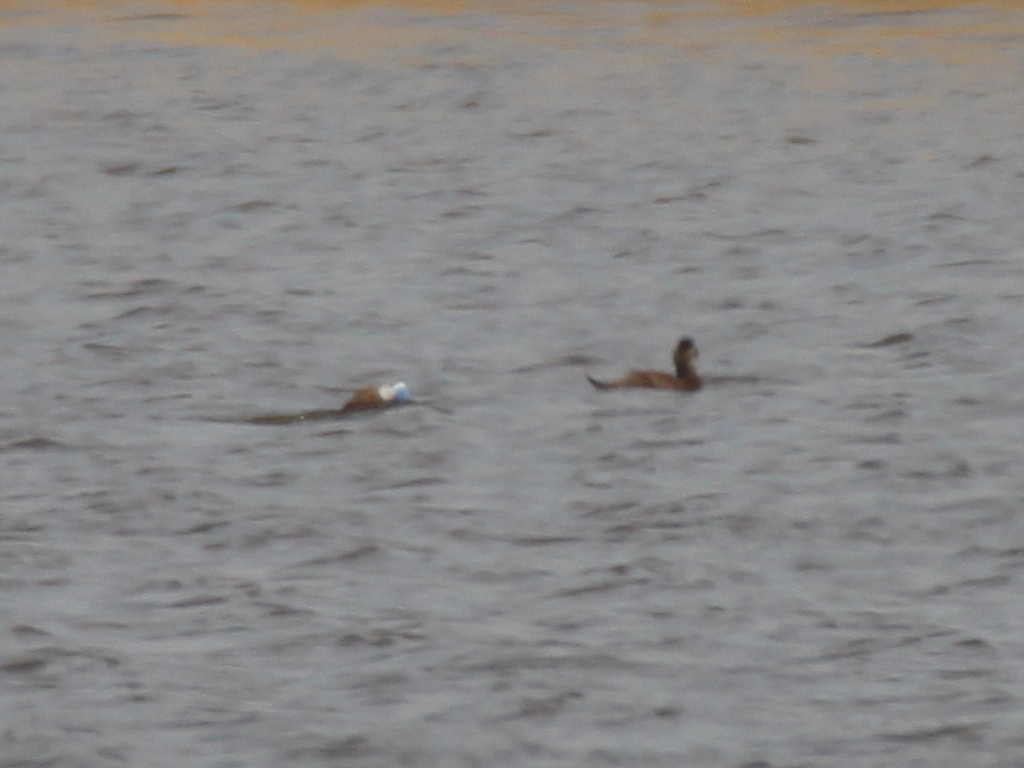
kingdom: Animalia
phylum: Chordata
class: Aves
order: Anseriformes
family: Anatidae
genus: Oxyura
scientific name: Oxyura leucocephala
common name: White-headed duck
